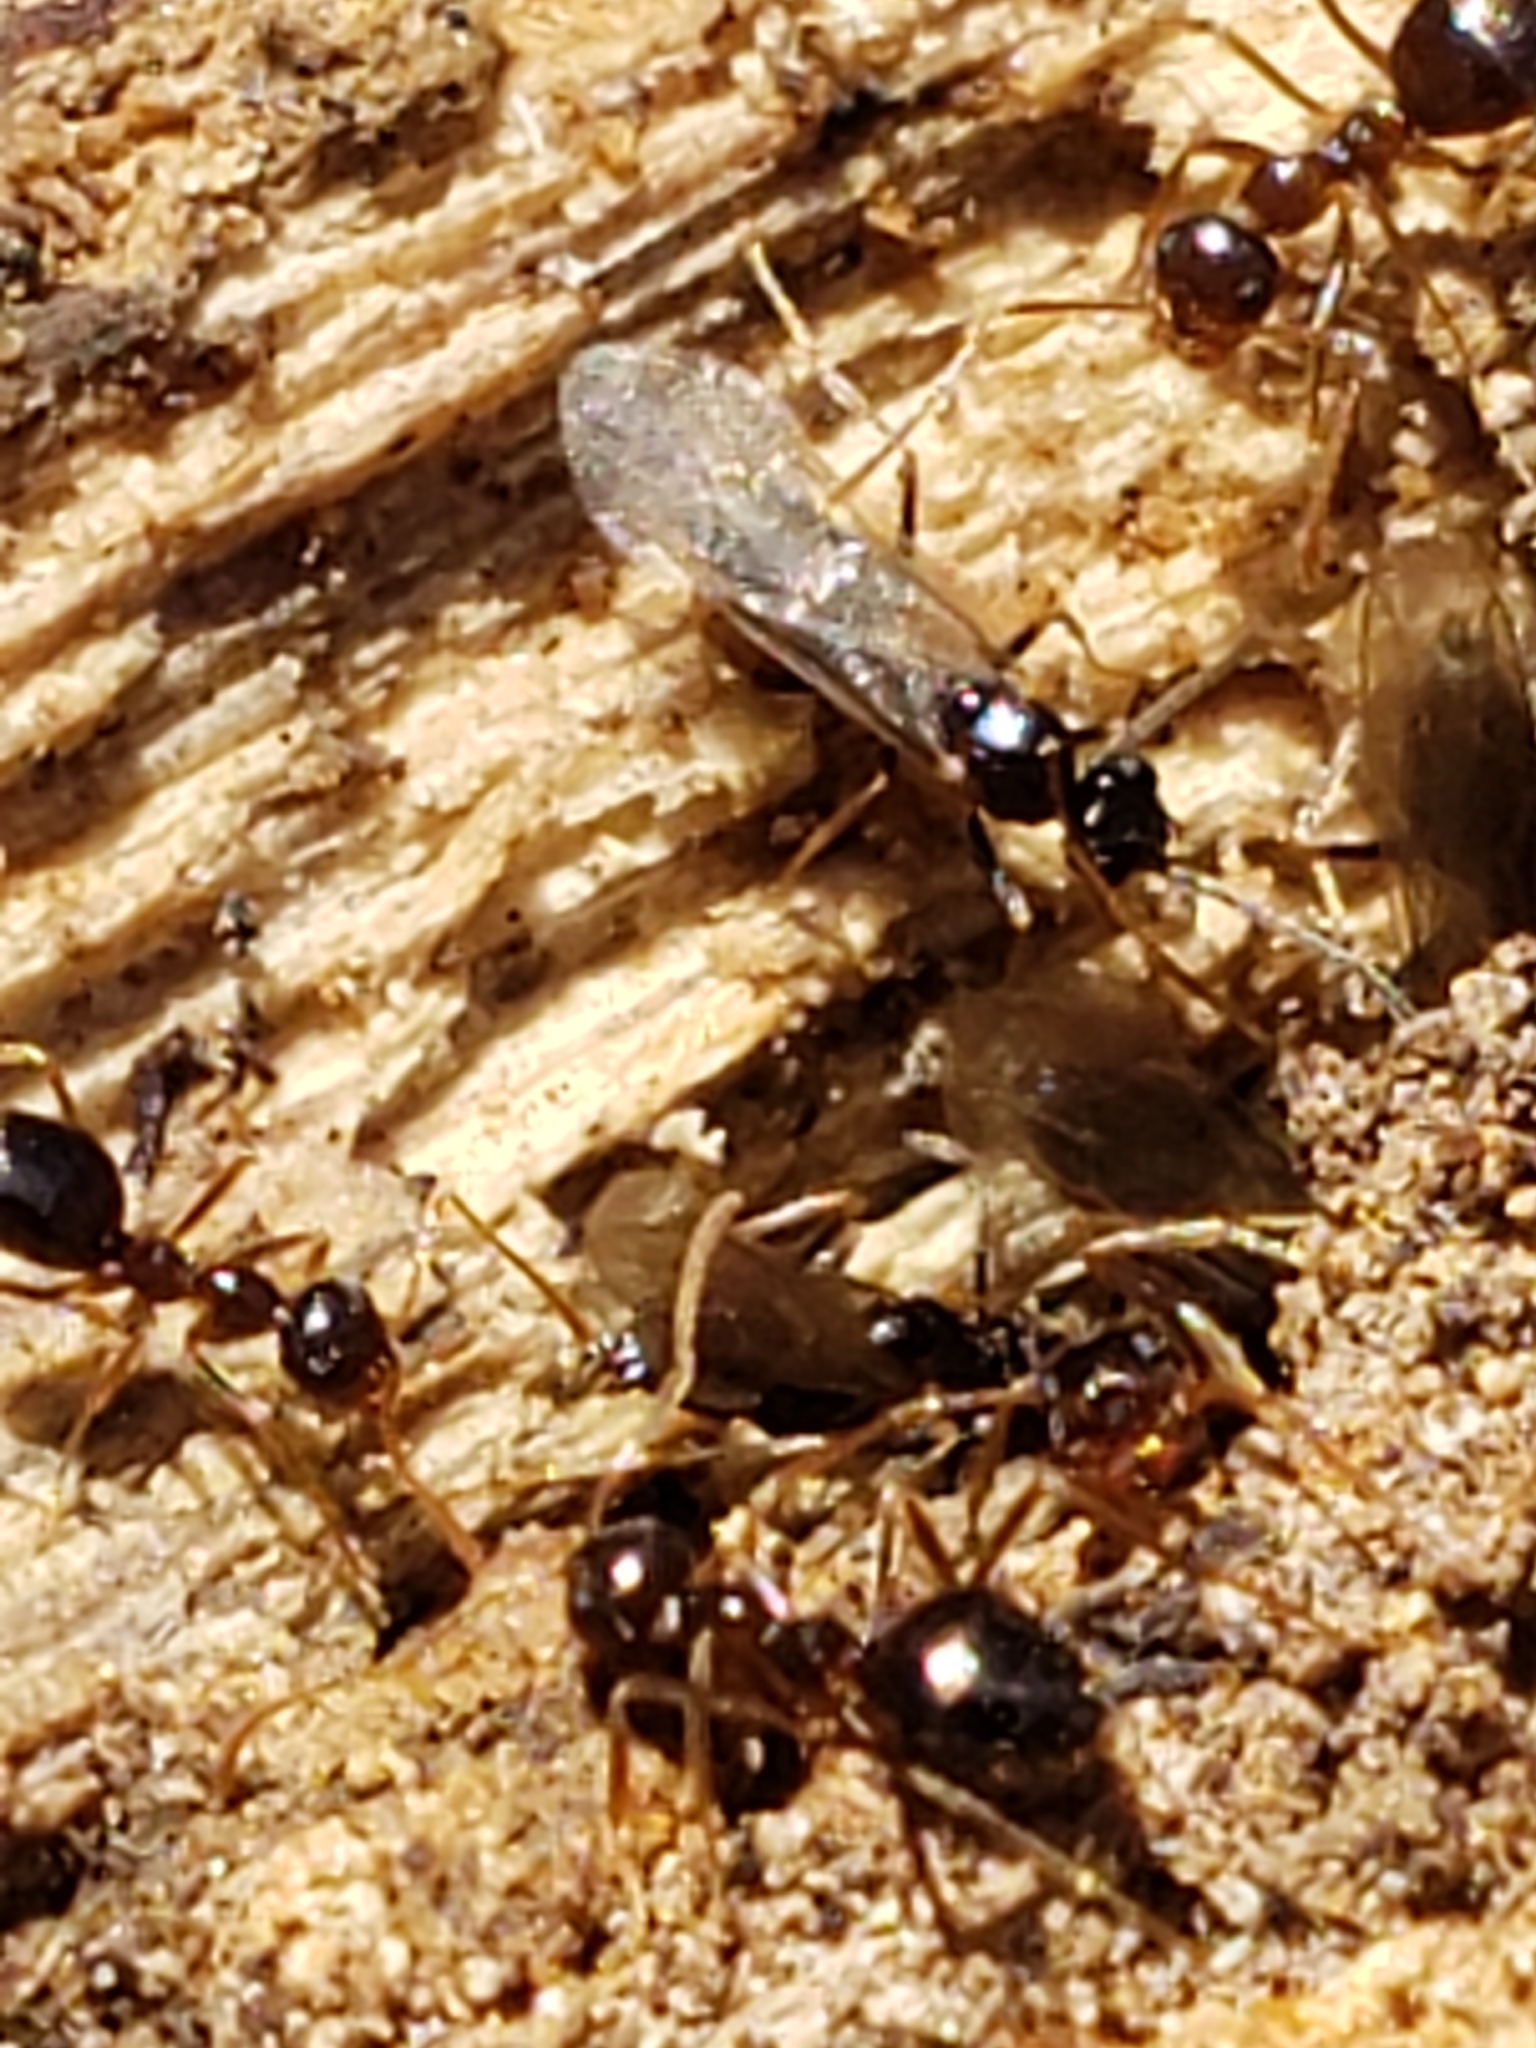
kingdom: Animalia
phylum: Arthropoda
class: Insecta
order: Hymenoptera
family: Formicidae
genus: Prenolepis
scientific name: Prenolepis imparis
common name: Small honey ant
